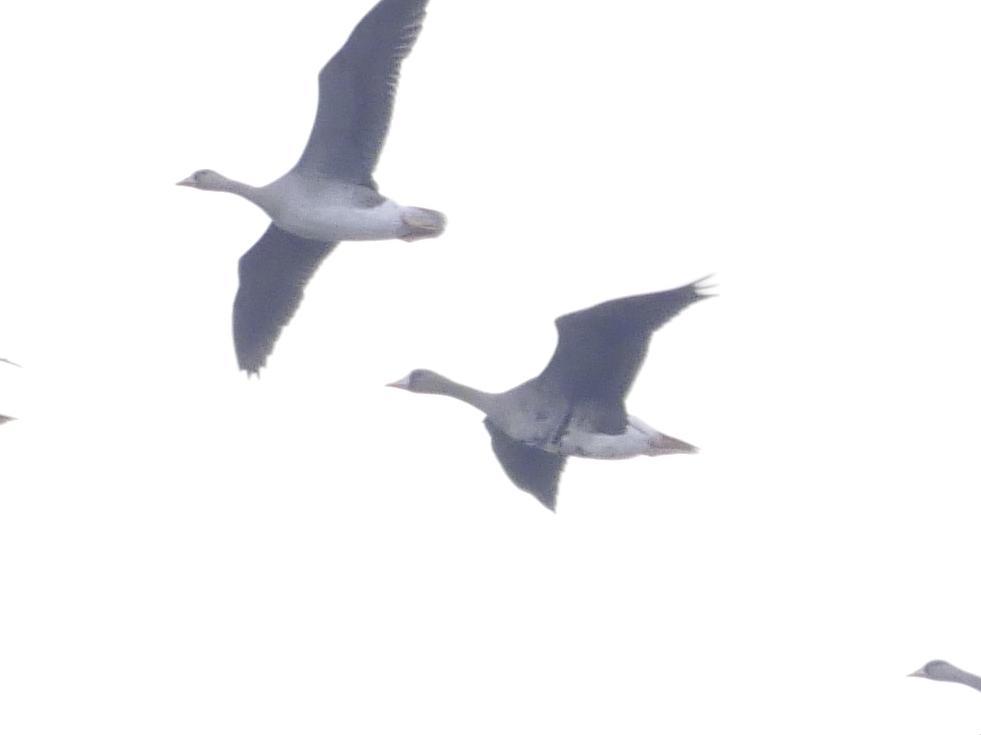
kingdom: Animalia
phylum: Chordata
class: Aves
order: Anseriformes
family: Anatidae
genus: Anser
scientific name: Anser albifrons
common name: Greater white-fronted goose
